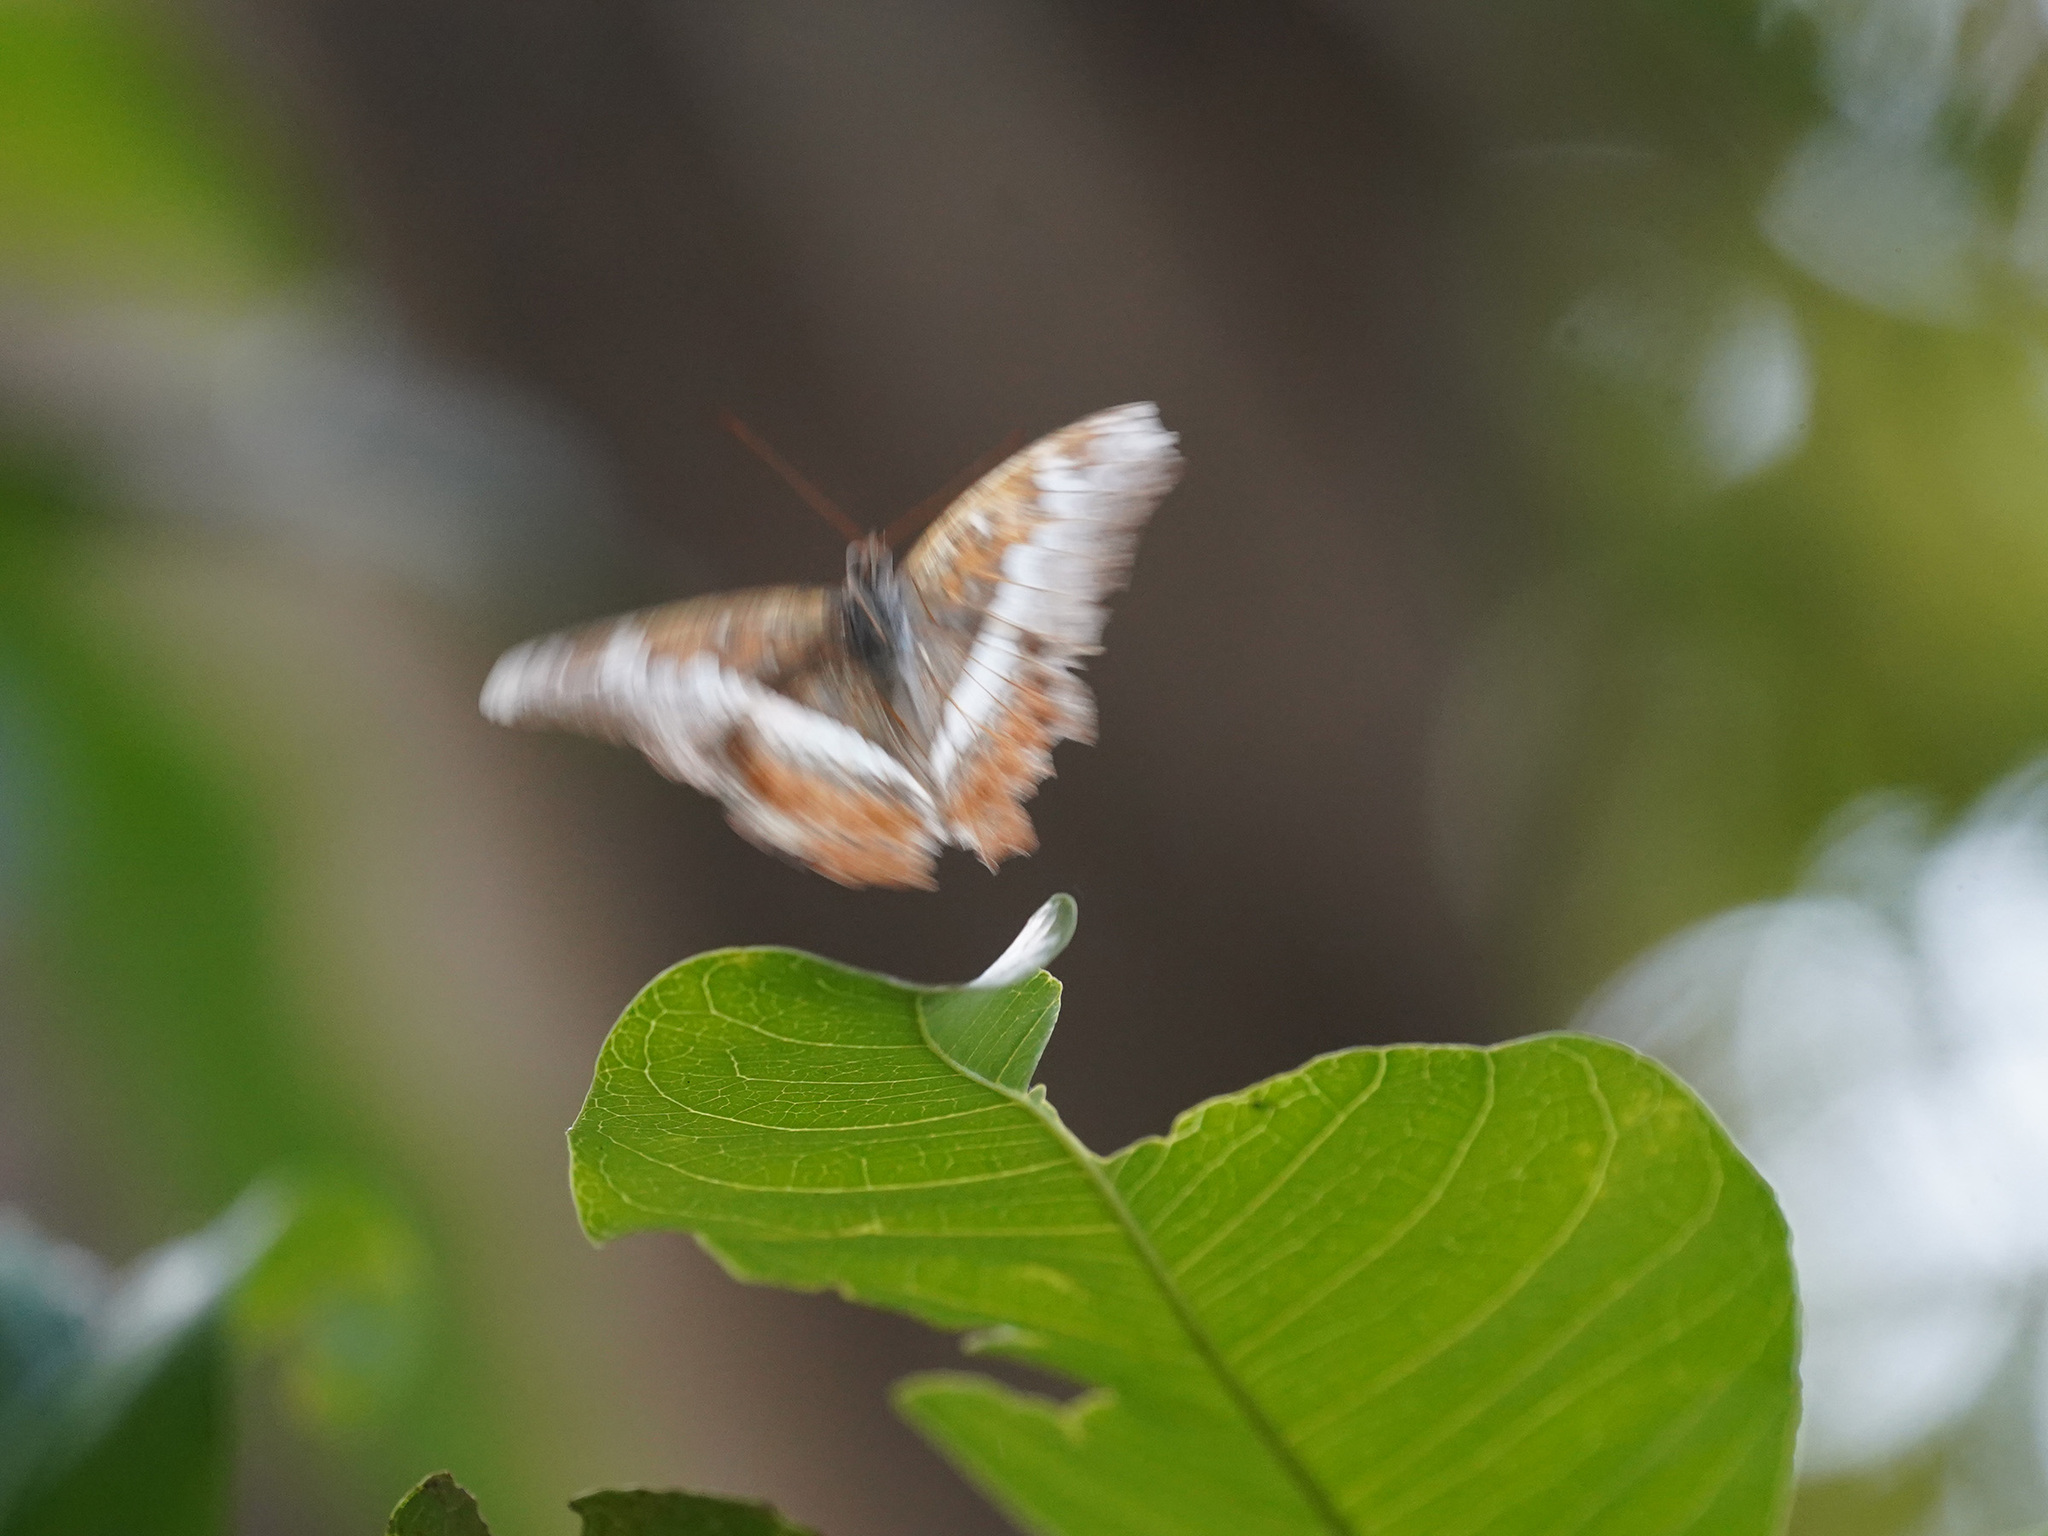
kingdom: Animalia
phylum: Arthropoda
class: Insecta
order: Lepidoptera
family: Nymphalidae
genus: Lebadea
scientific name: Lebadea martha
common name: Knight
